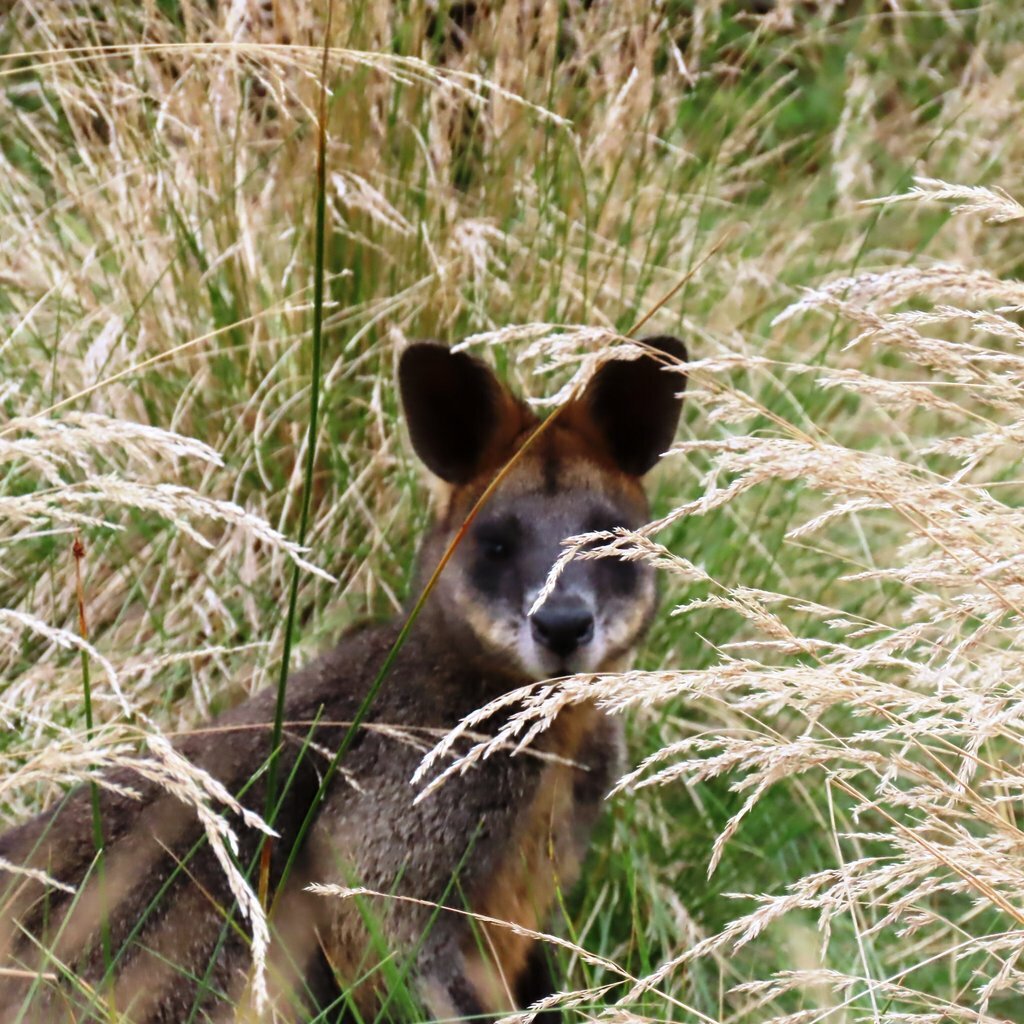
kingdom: Animalia
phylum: Chordata
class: Mammalia
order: Diprotodontia
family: Macropodidae
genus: Wallabia
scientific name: Wallabia bicolor
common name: Swamp wallaby
